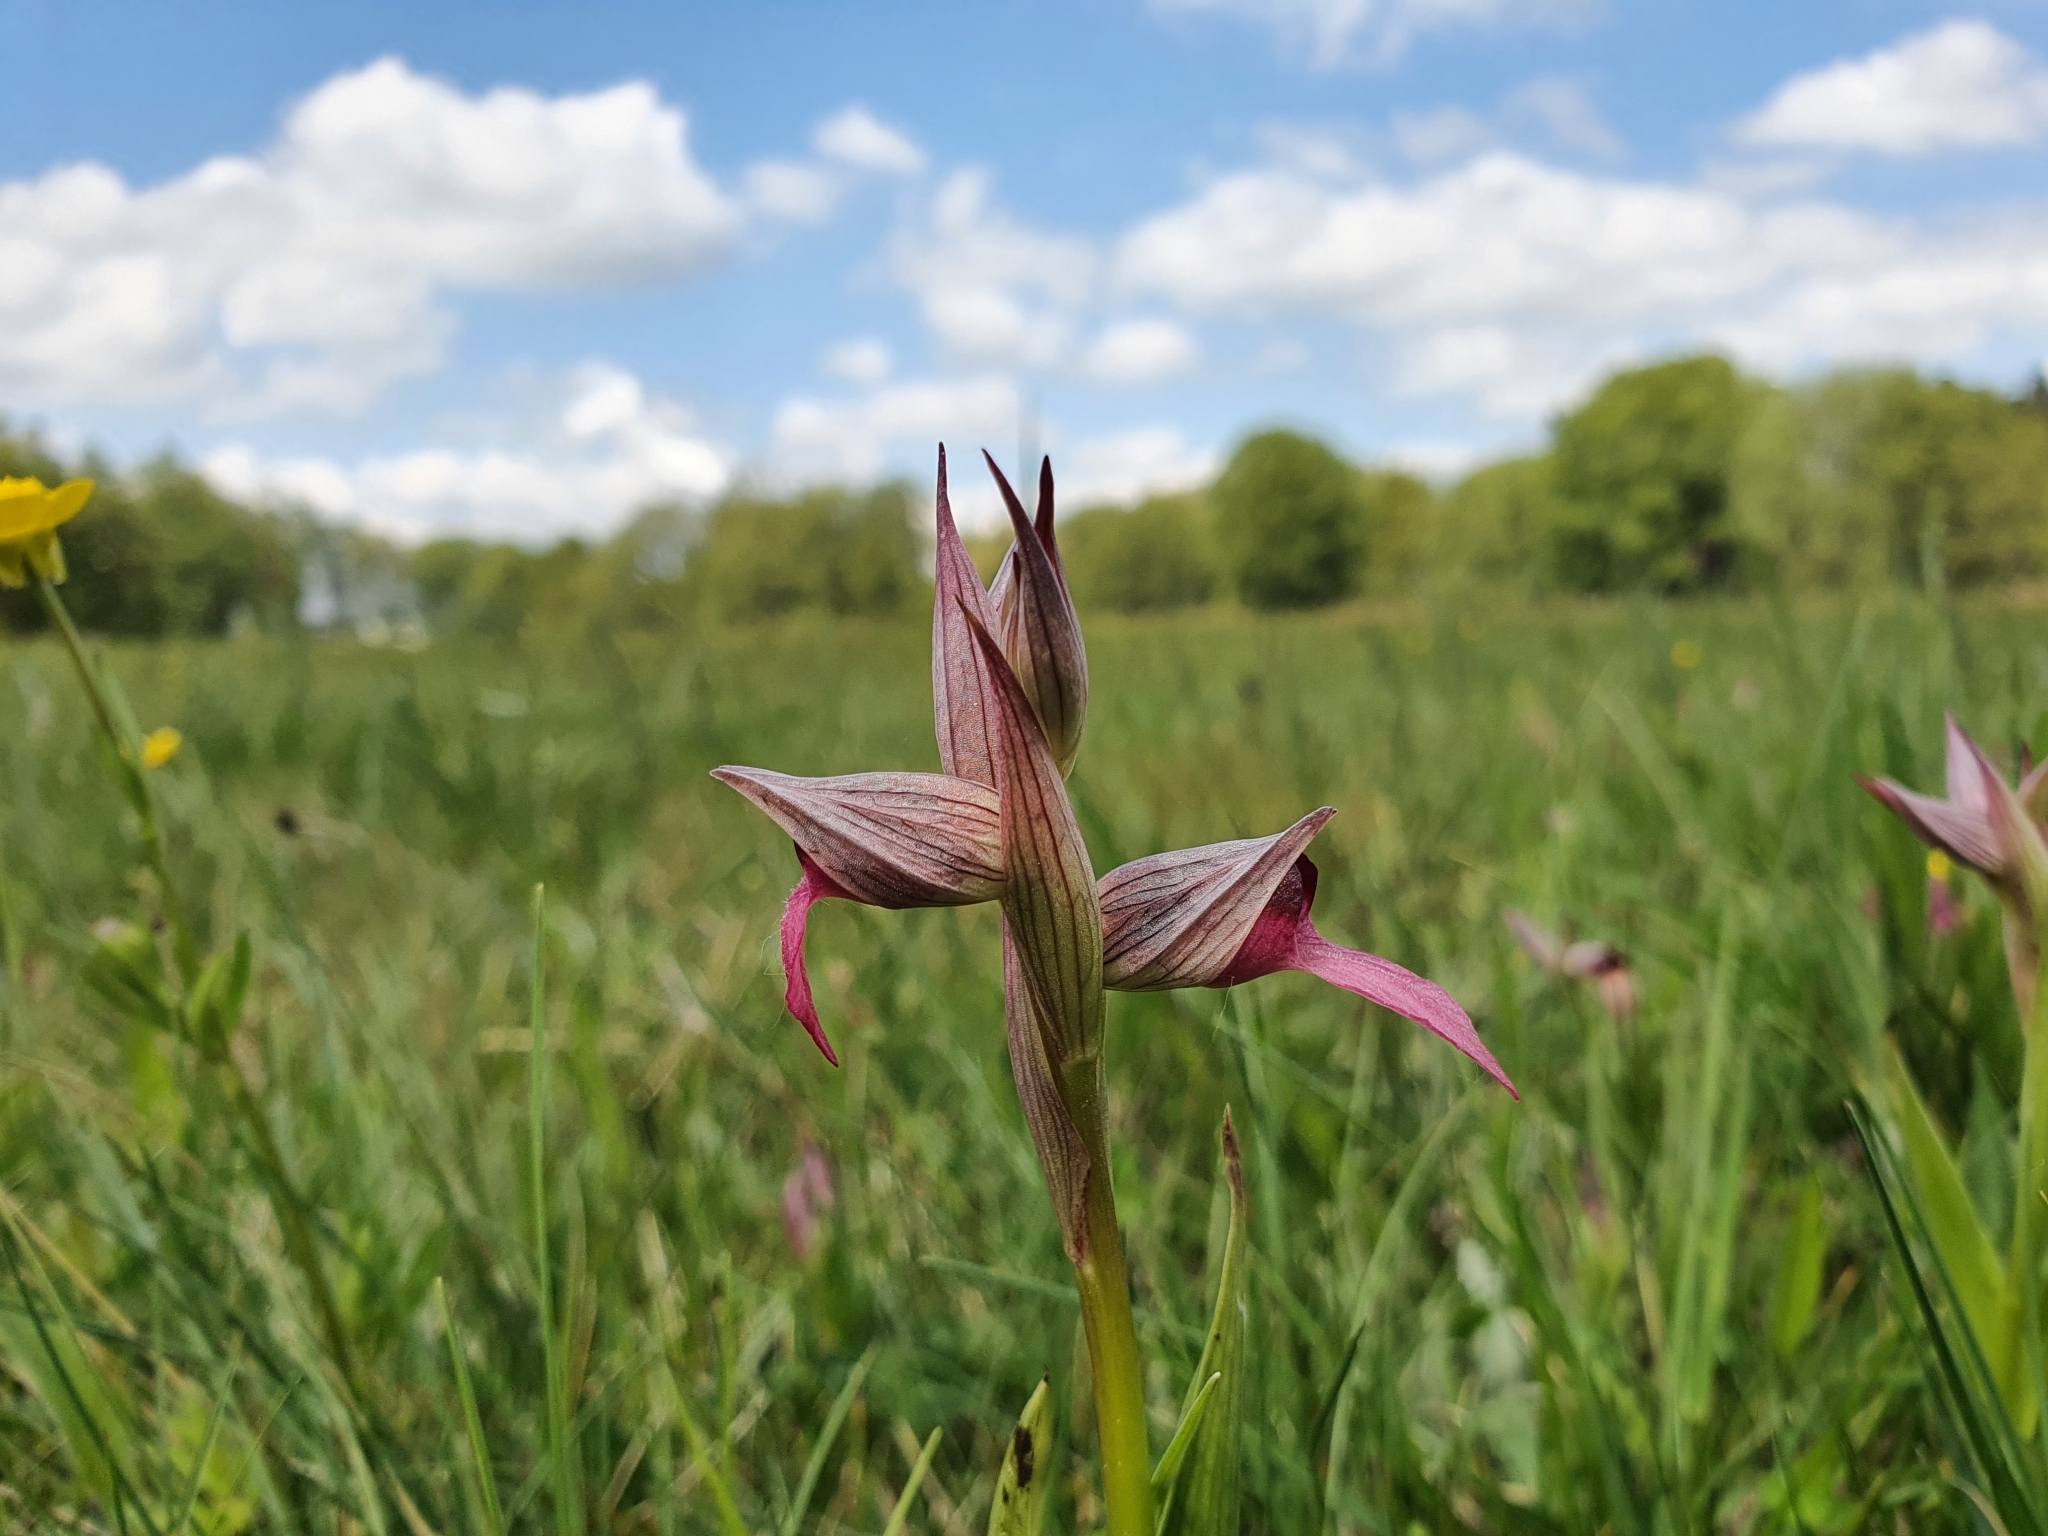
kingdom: Plantae
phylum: Tracheophyta
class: Liliopsida
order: Asparagales
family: Orchidaceae
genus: Serapias
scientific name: Serapias lingua
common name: Tongue-orchid
